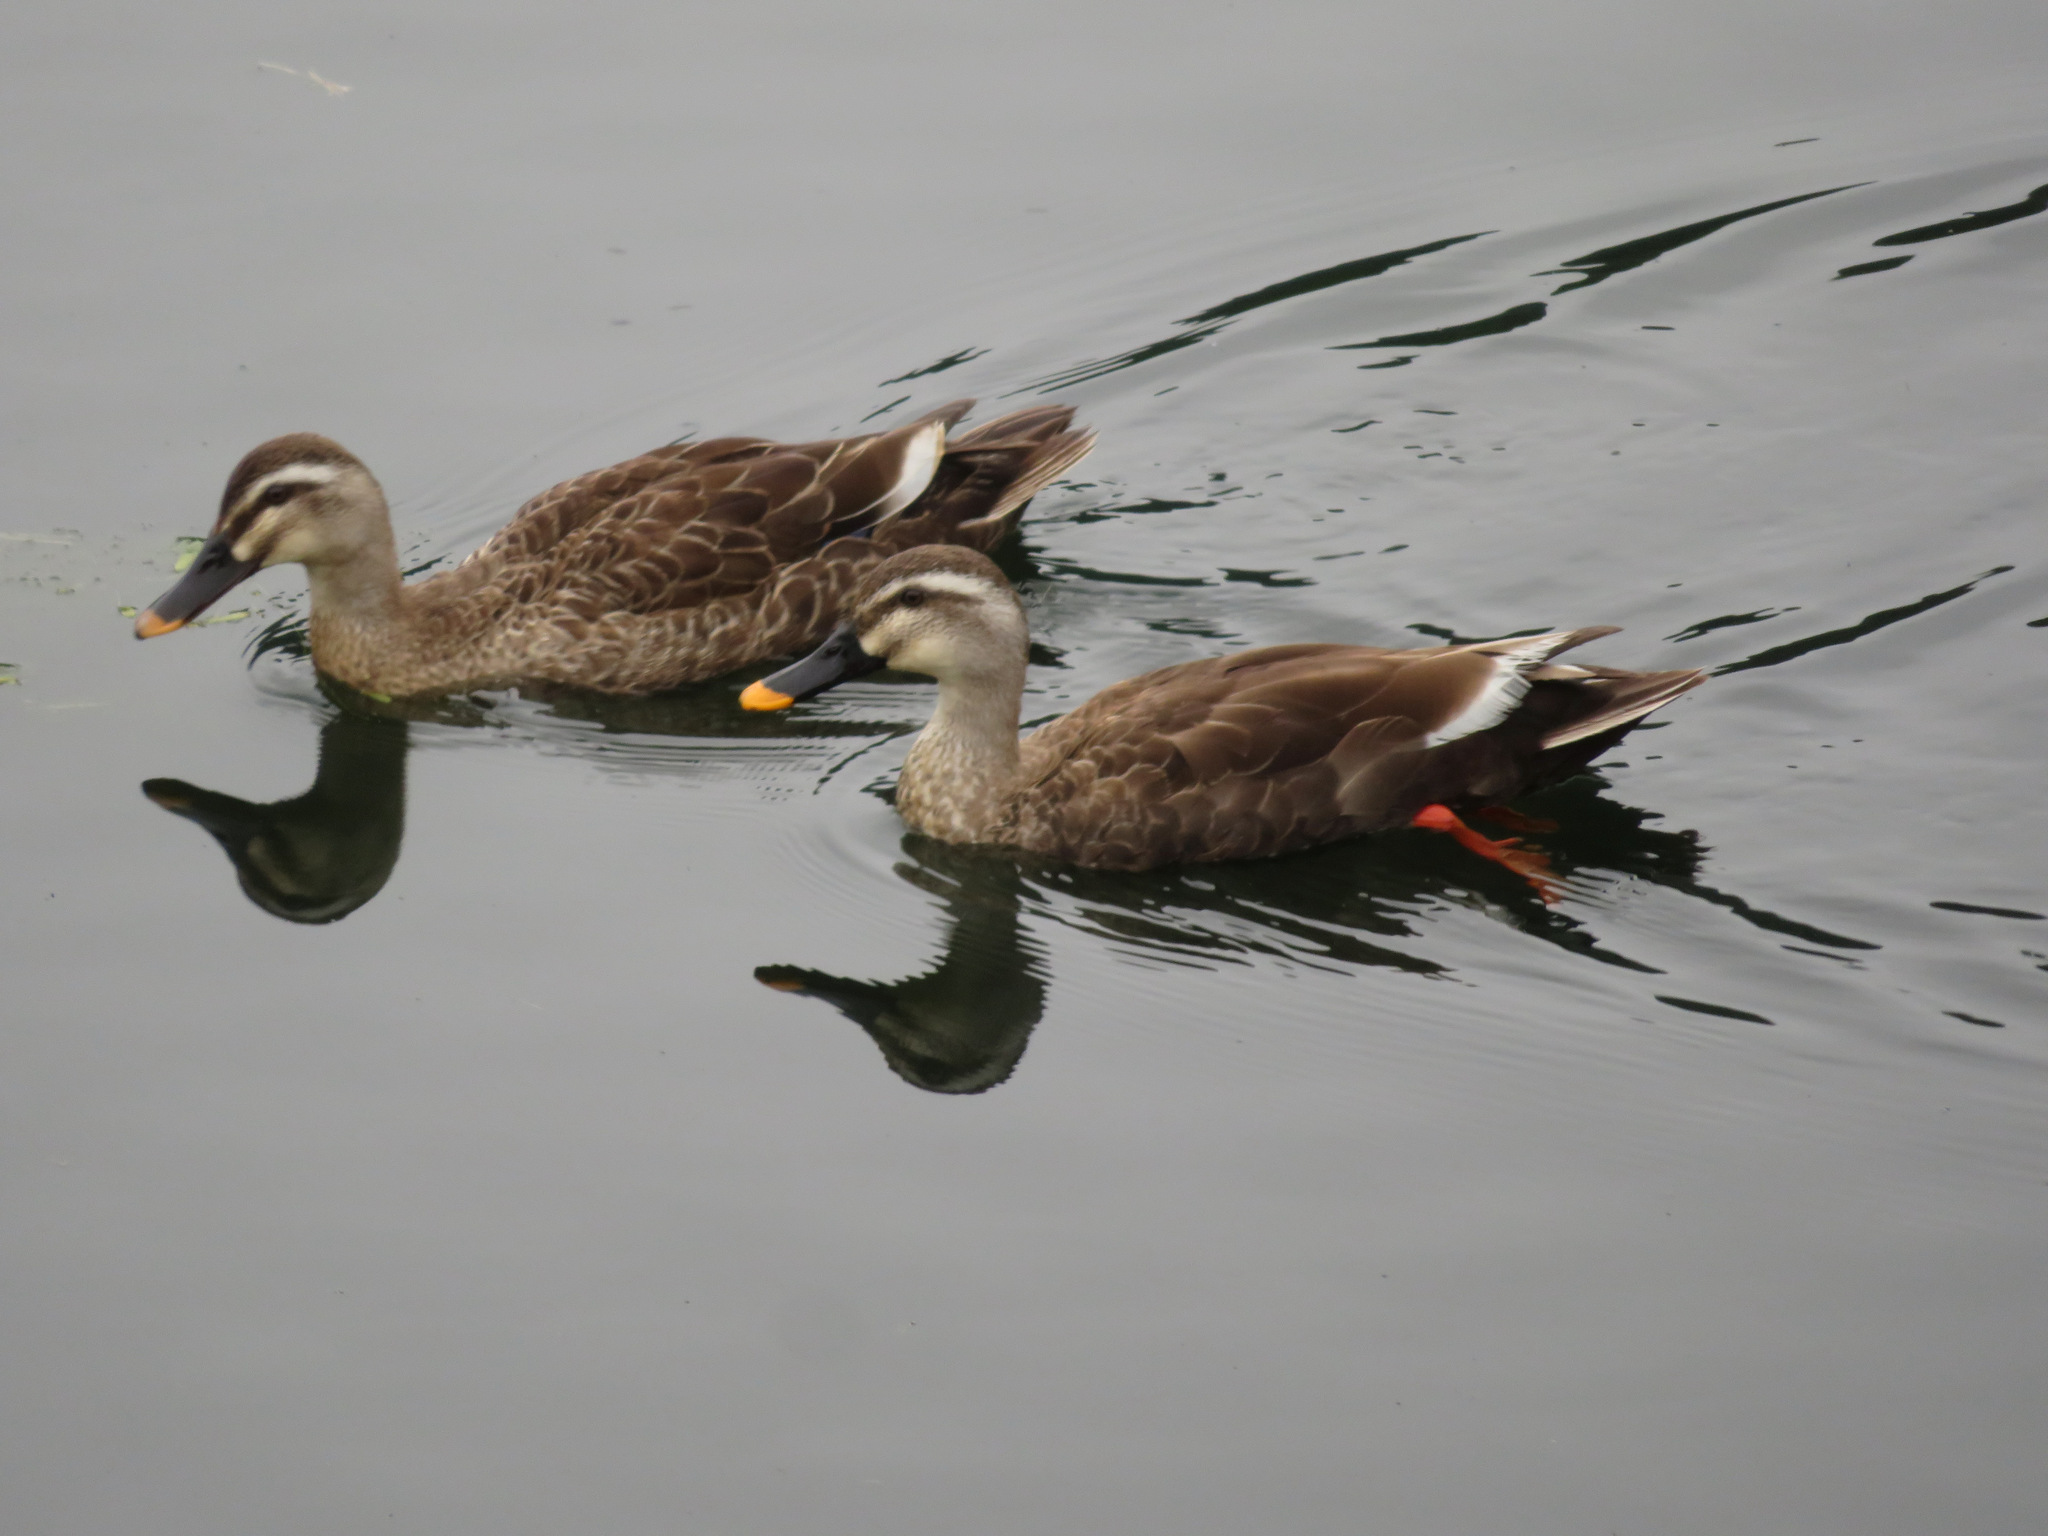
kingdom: Animalia
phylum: Chordata
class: Aves
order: Anseriformes
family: Anatidae
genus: Anas
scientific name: Anas zonorhyncha
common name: Eastern spot-billed duck
